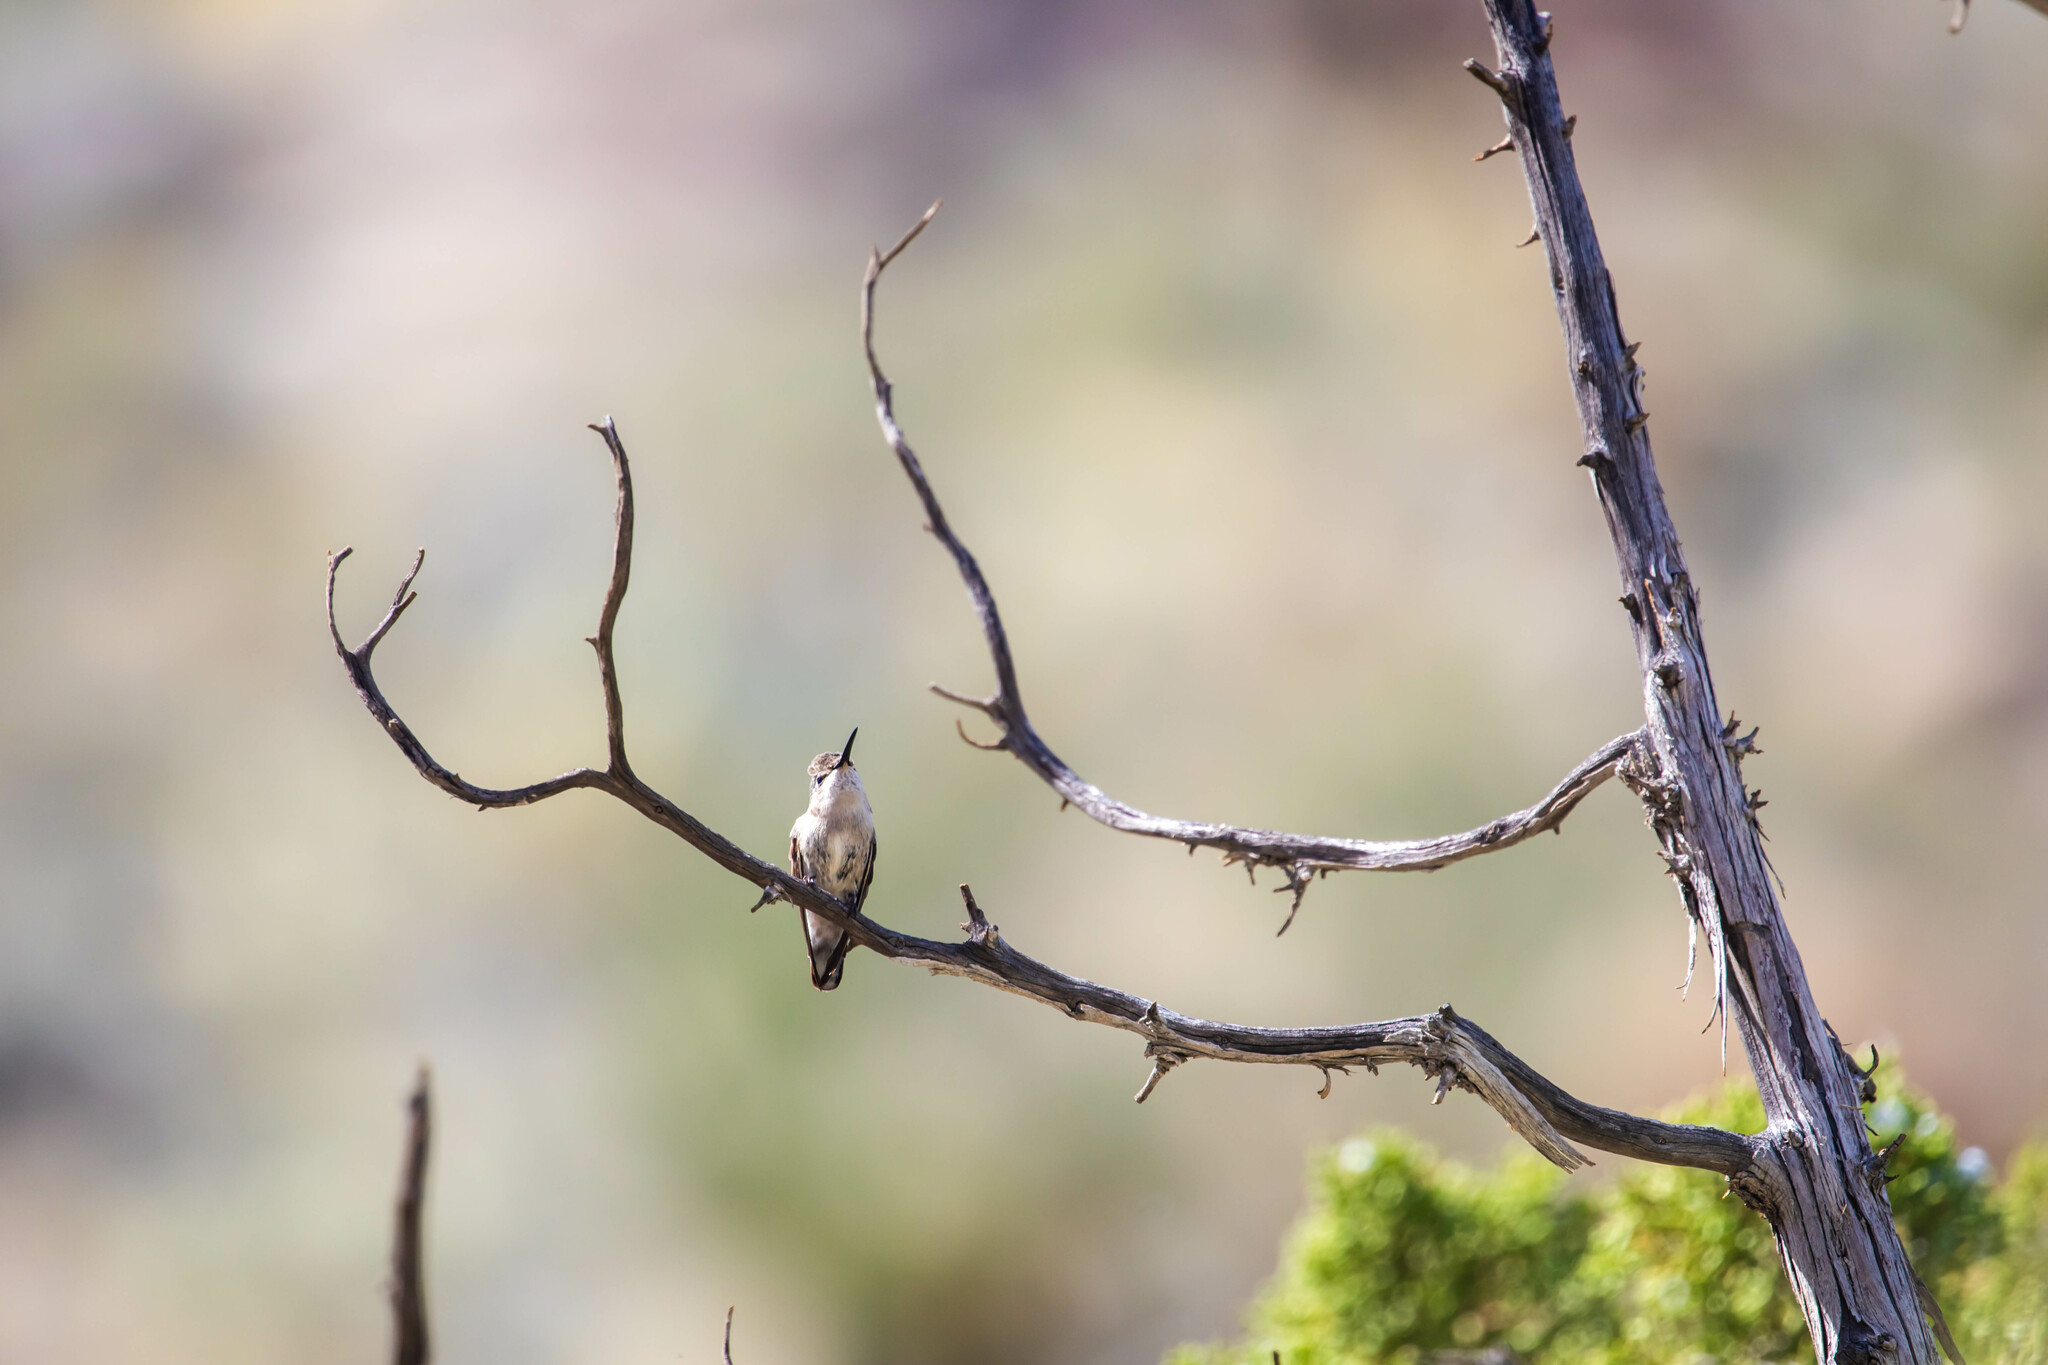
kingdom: Animalia
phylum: Chordata
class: Aves
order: Apodiformes
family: Trochilidae
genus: Calypte
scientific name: Calypte costae
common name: Costa's hummingbird
